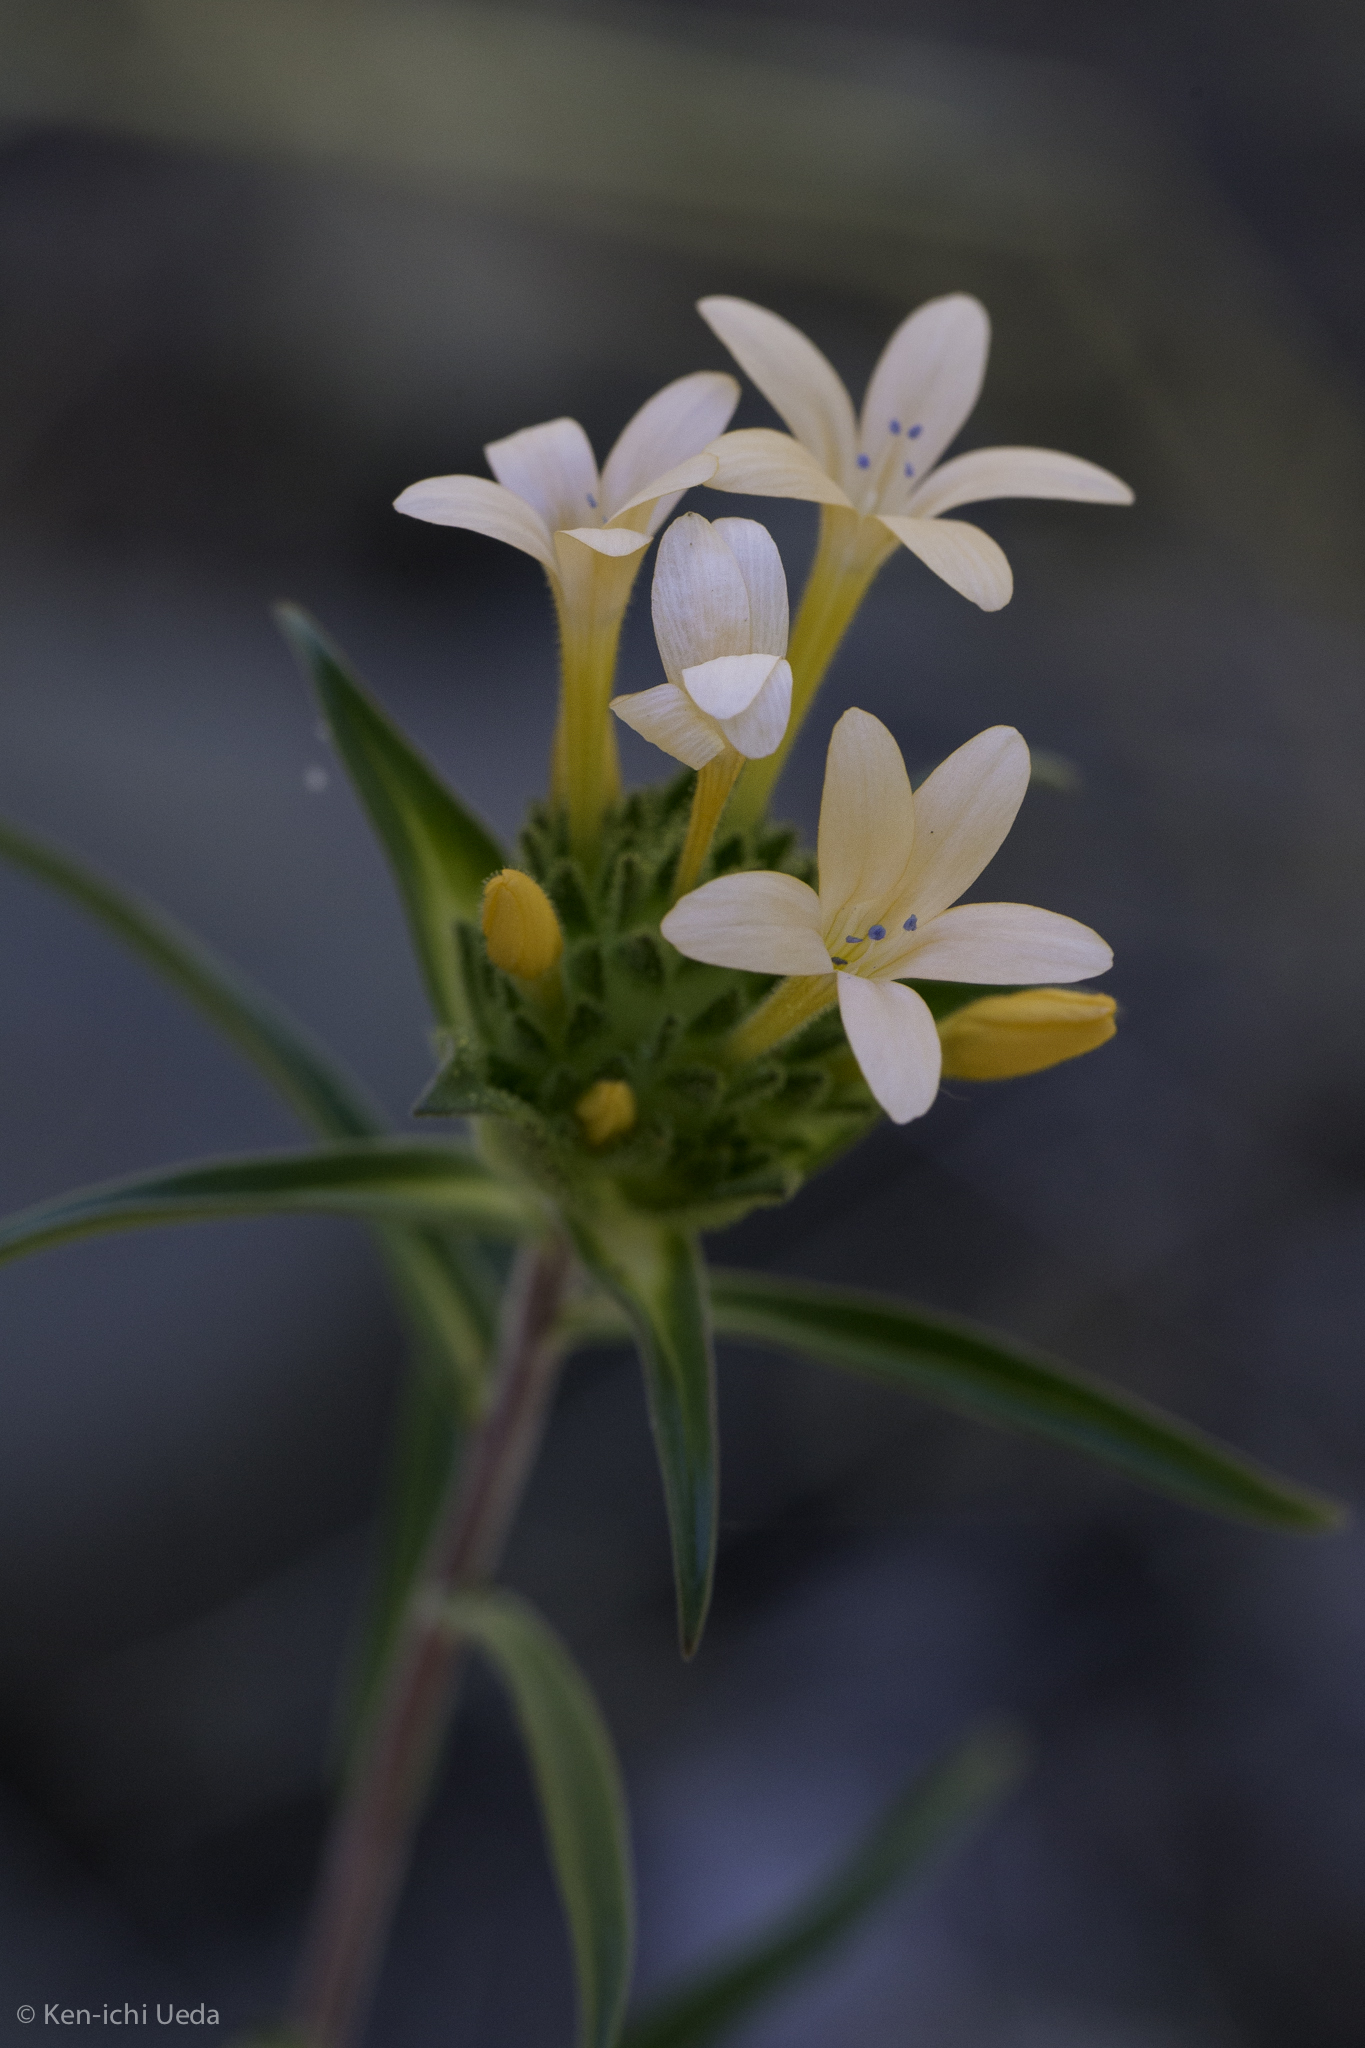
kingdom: Plantae
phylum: Tracheophyta
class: Magnoliopsida
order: Ericales
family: Polemoniaceae
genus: Collomia
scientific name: Collomia grandiflora
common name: California strawflower
